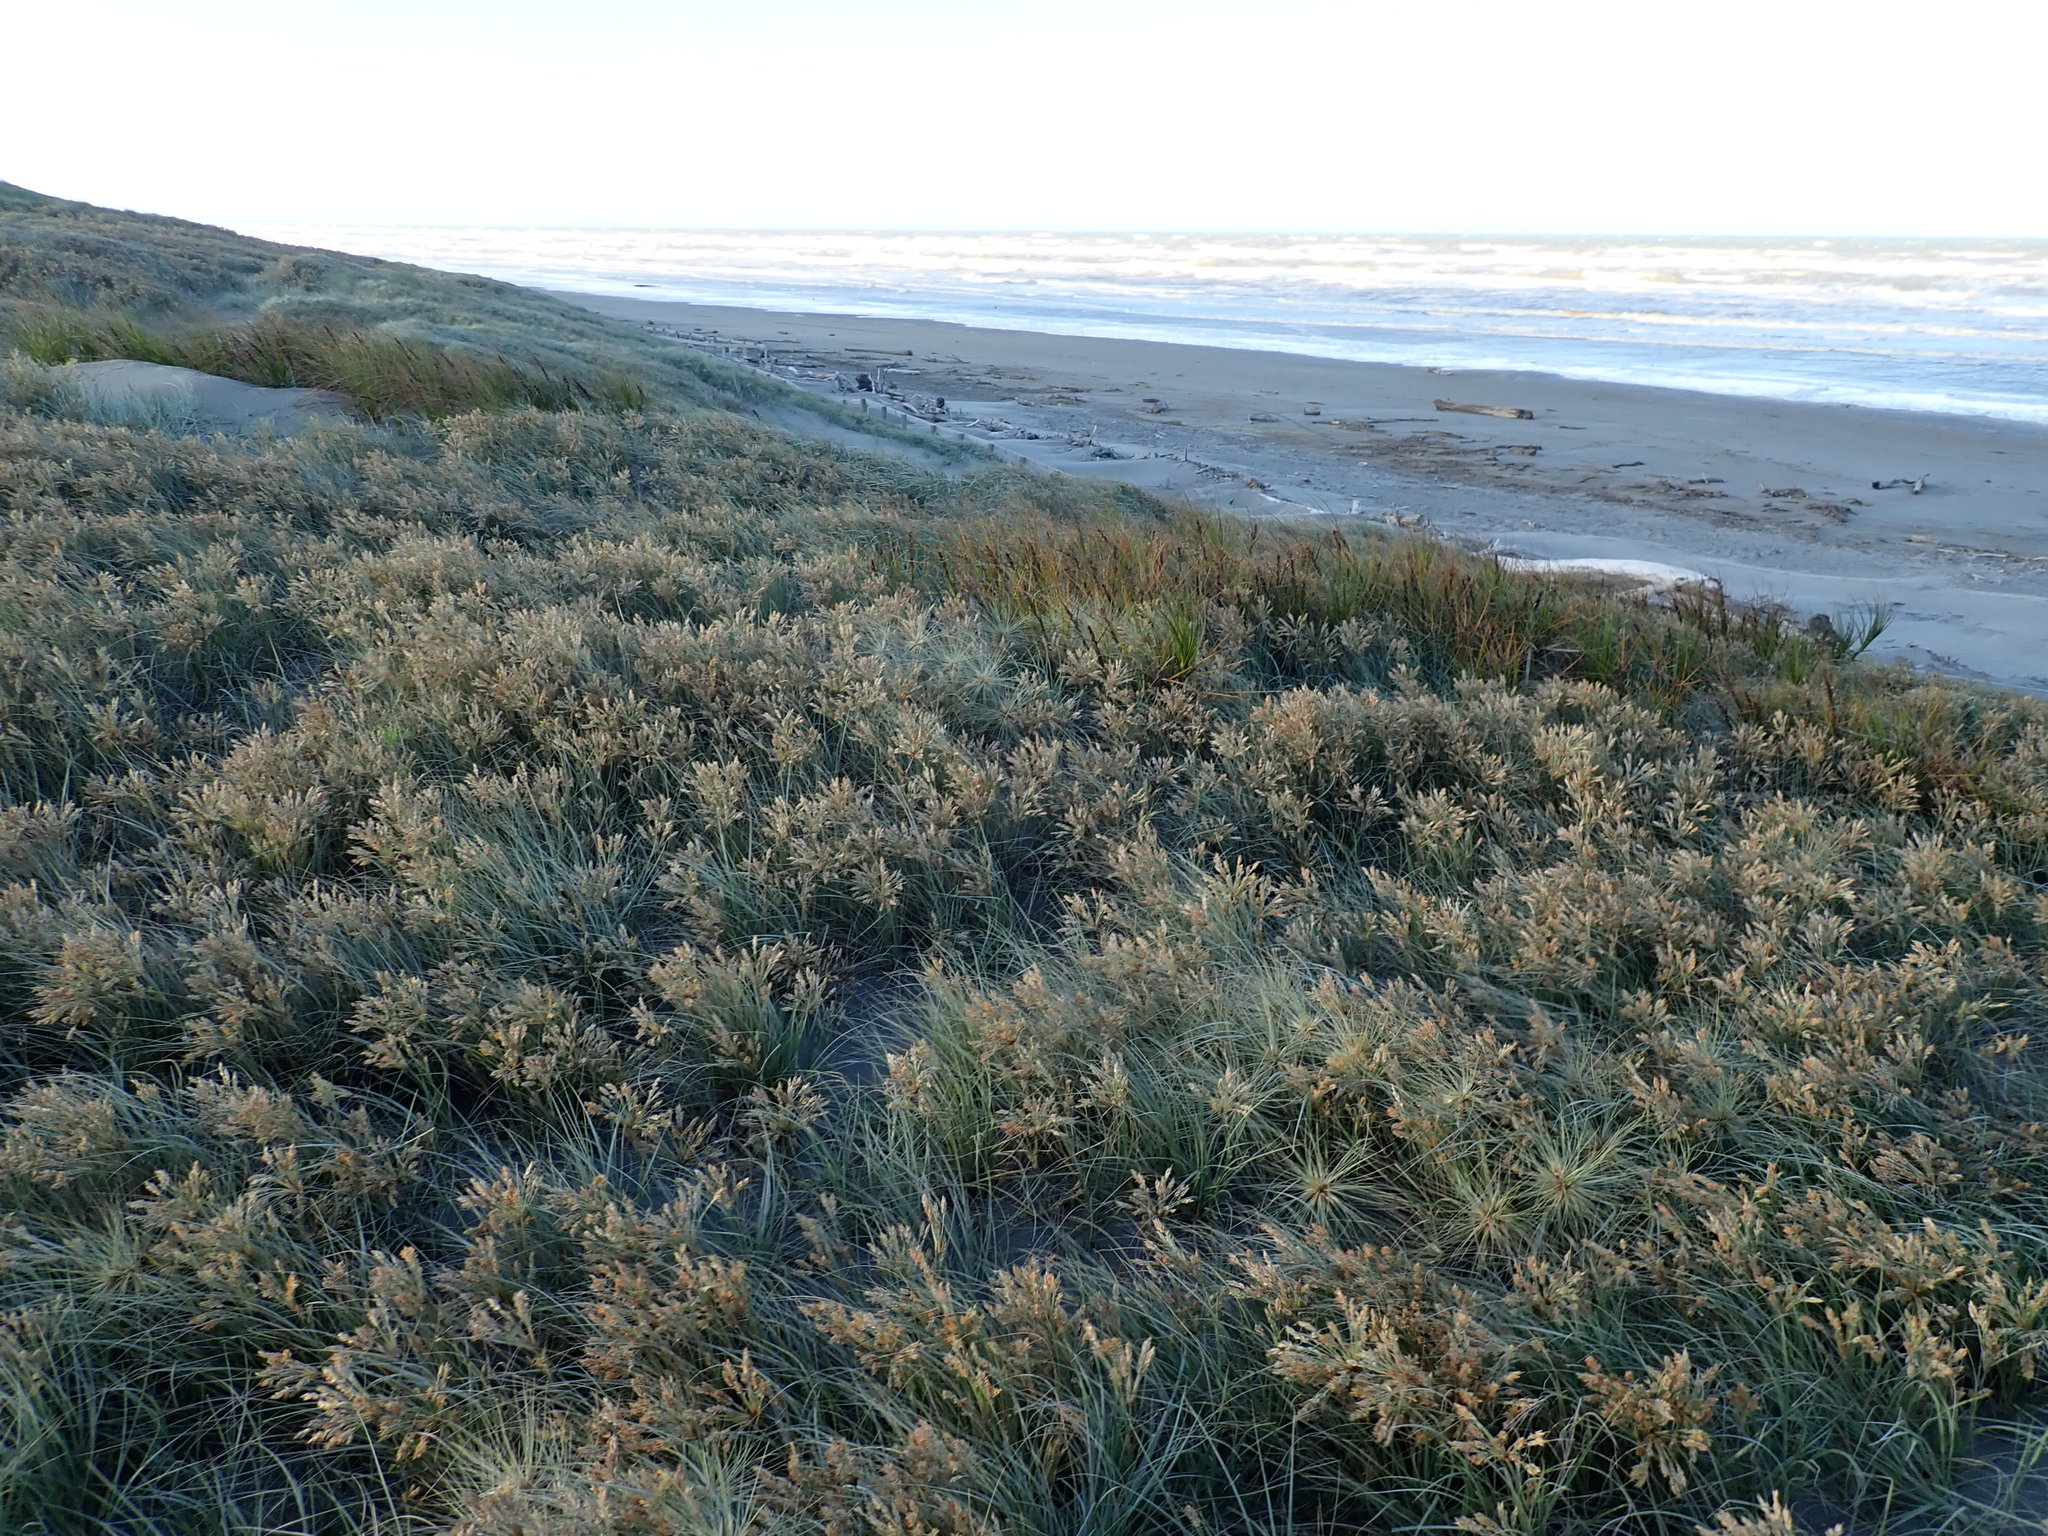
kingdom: Plantae
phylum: Tracheophyta
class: Liliopsida
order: Poales
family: Cyperaceae
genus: Ficinia
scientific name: Ficinia spiralis
